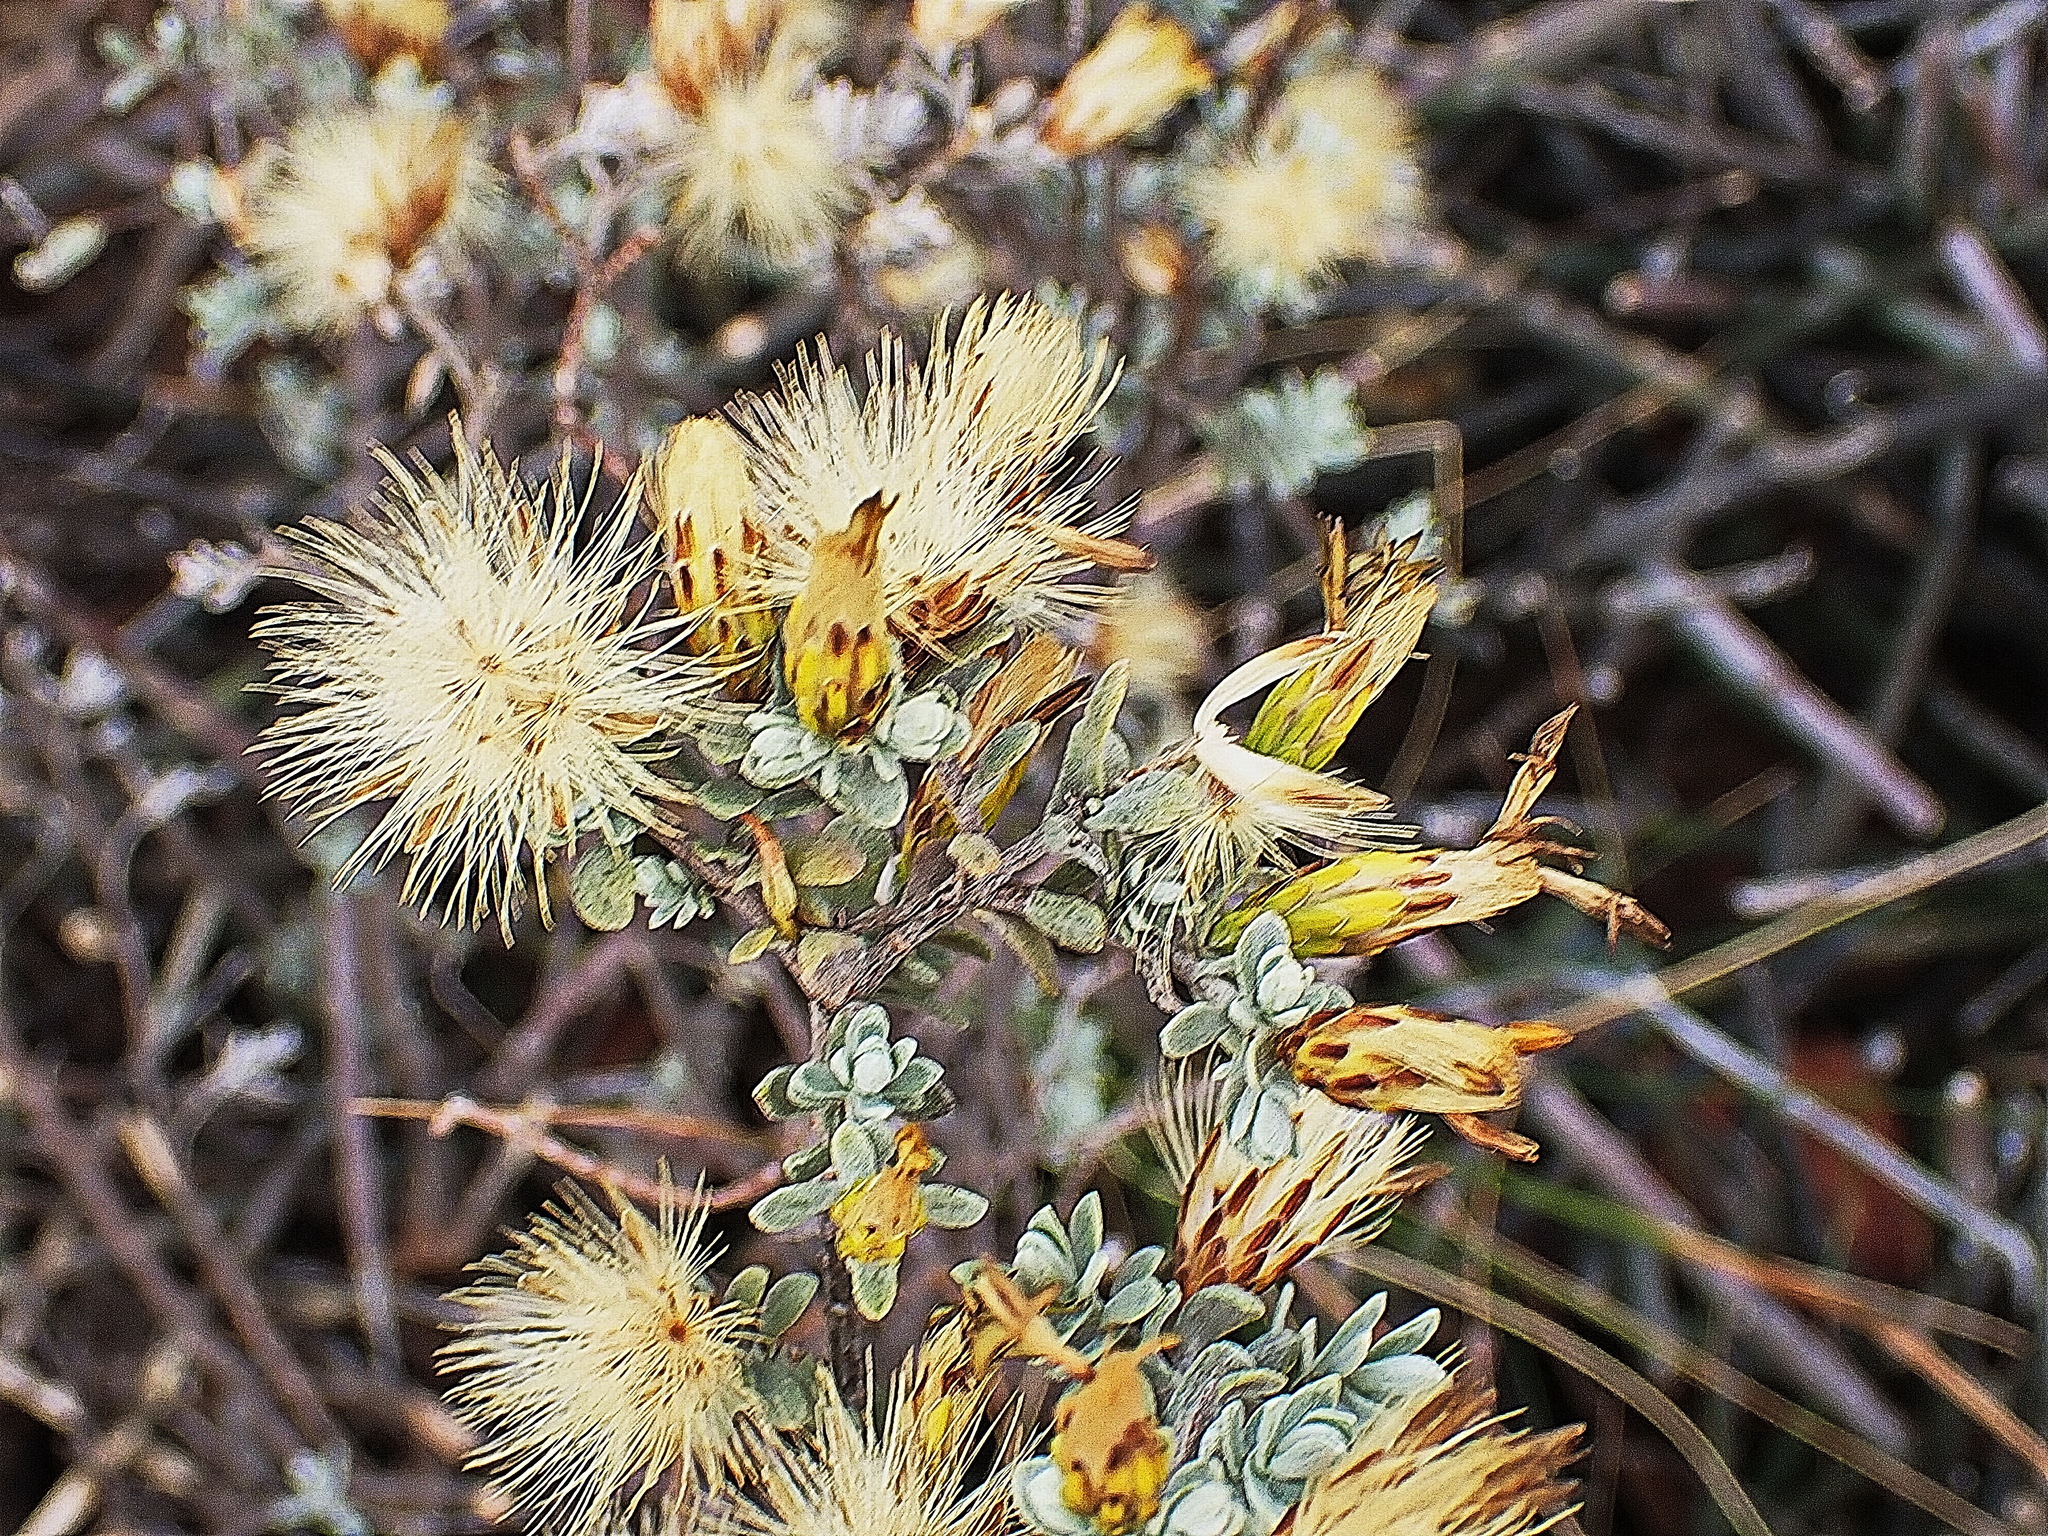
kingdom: Plantae
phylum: Tracheophyta
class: Magnoliopsida
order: Asterales
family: Asteraceae
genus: Pteronia
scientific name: Pteronia incana
